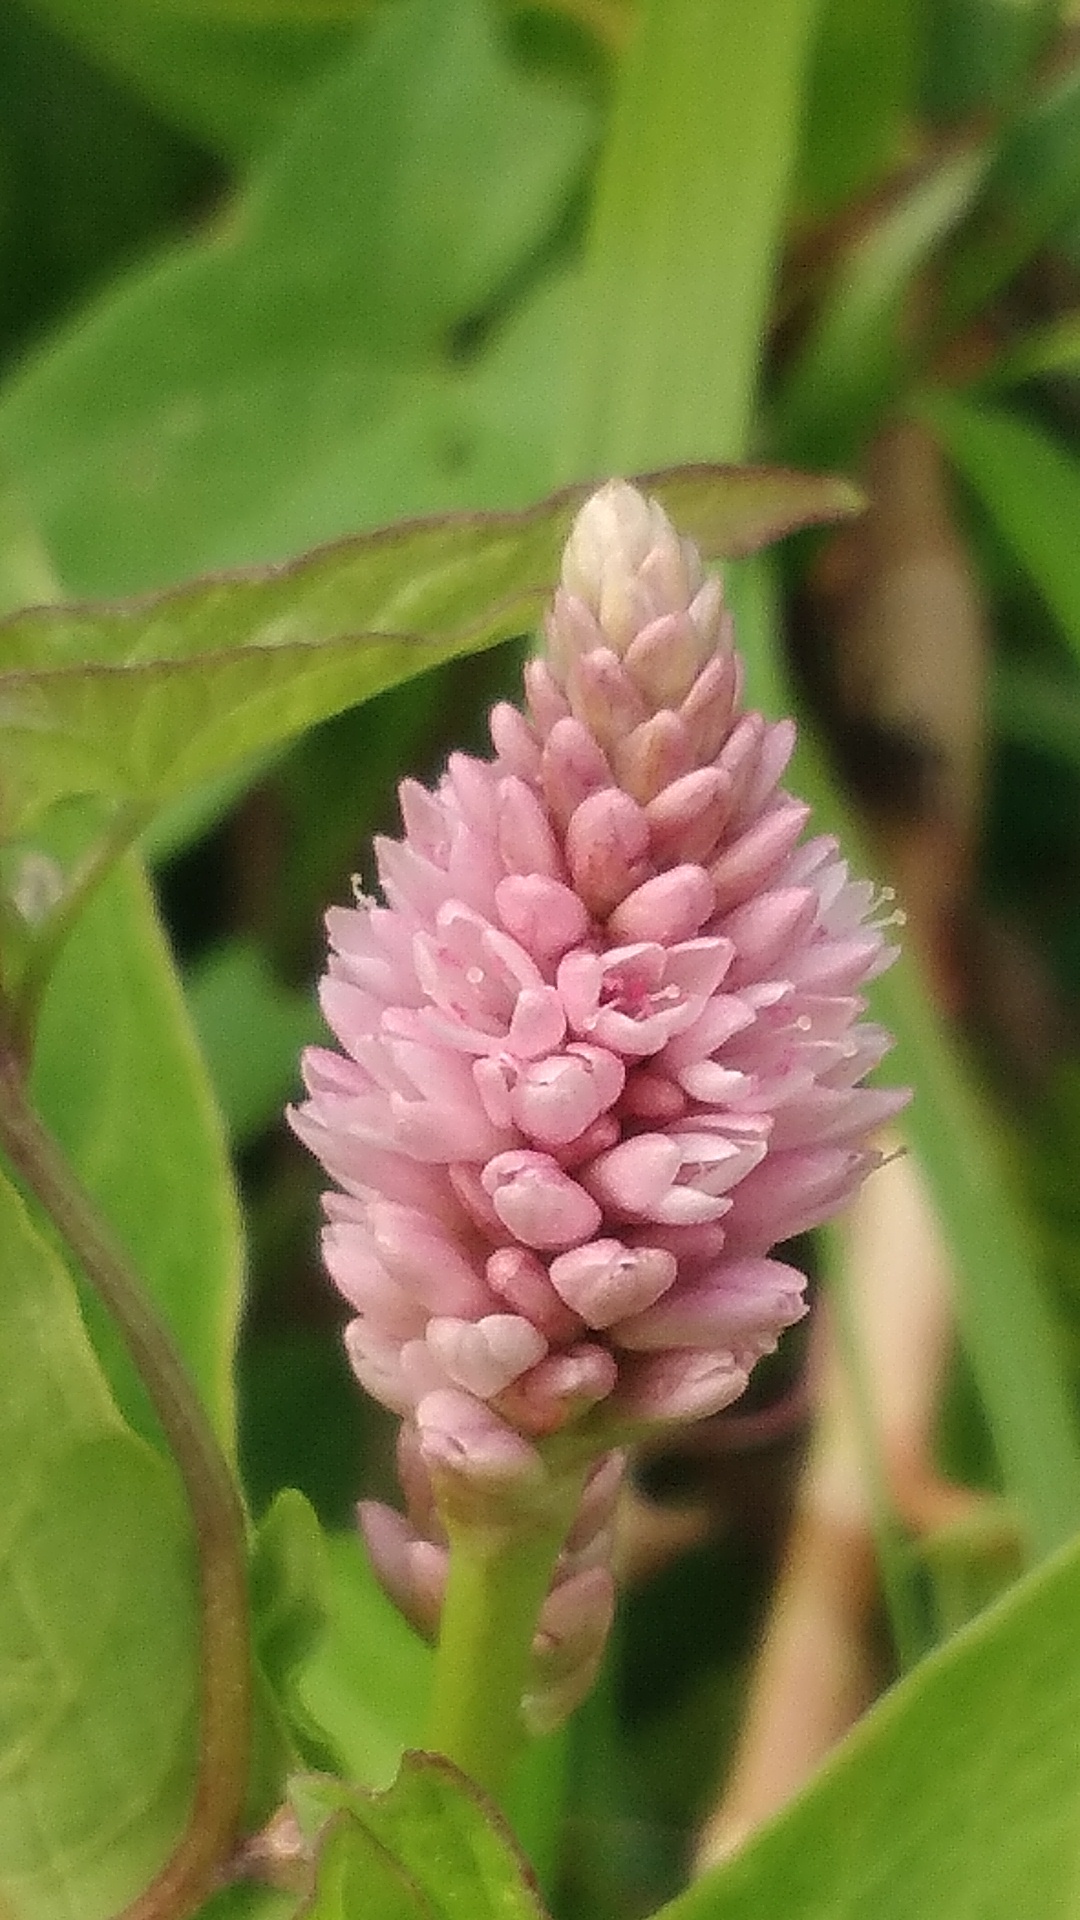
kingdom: Plantae
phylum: Tracheophyta
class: Magnoliopsida
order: Caryophyllales
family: Polygonaceae
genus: Persicaria
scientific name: Persicaria amphibia
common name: Amphibious bistort
